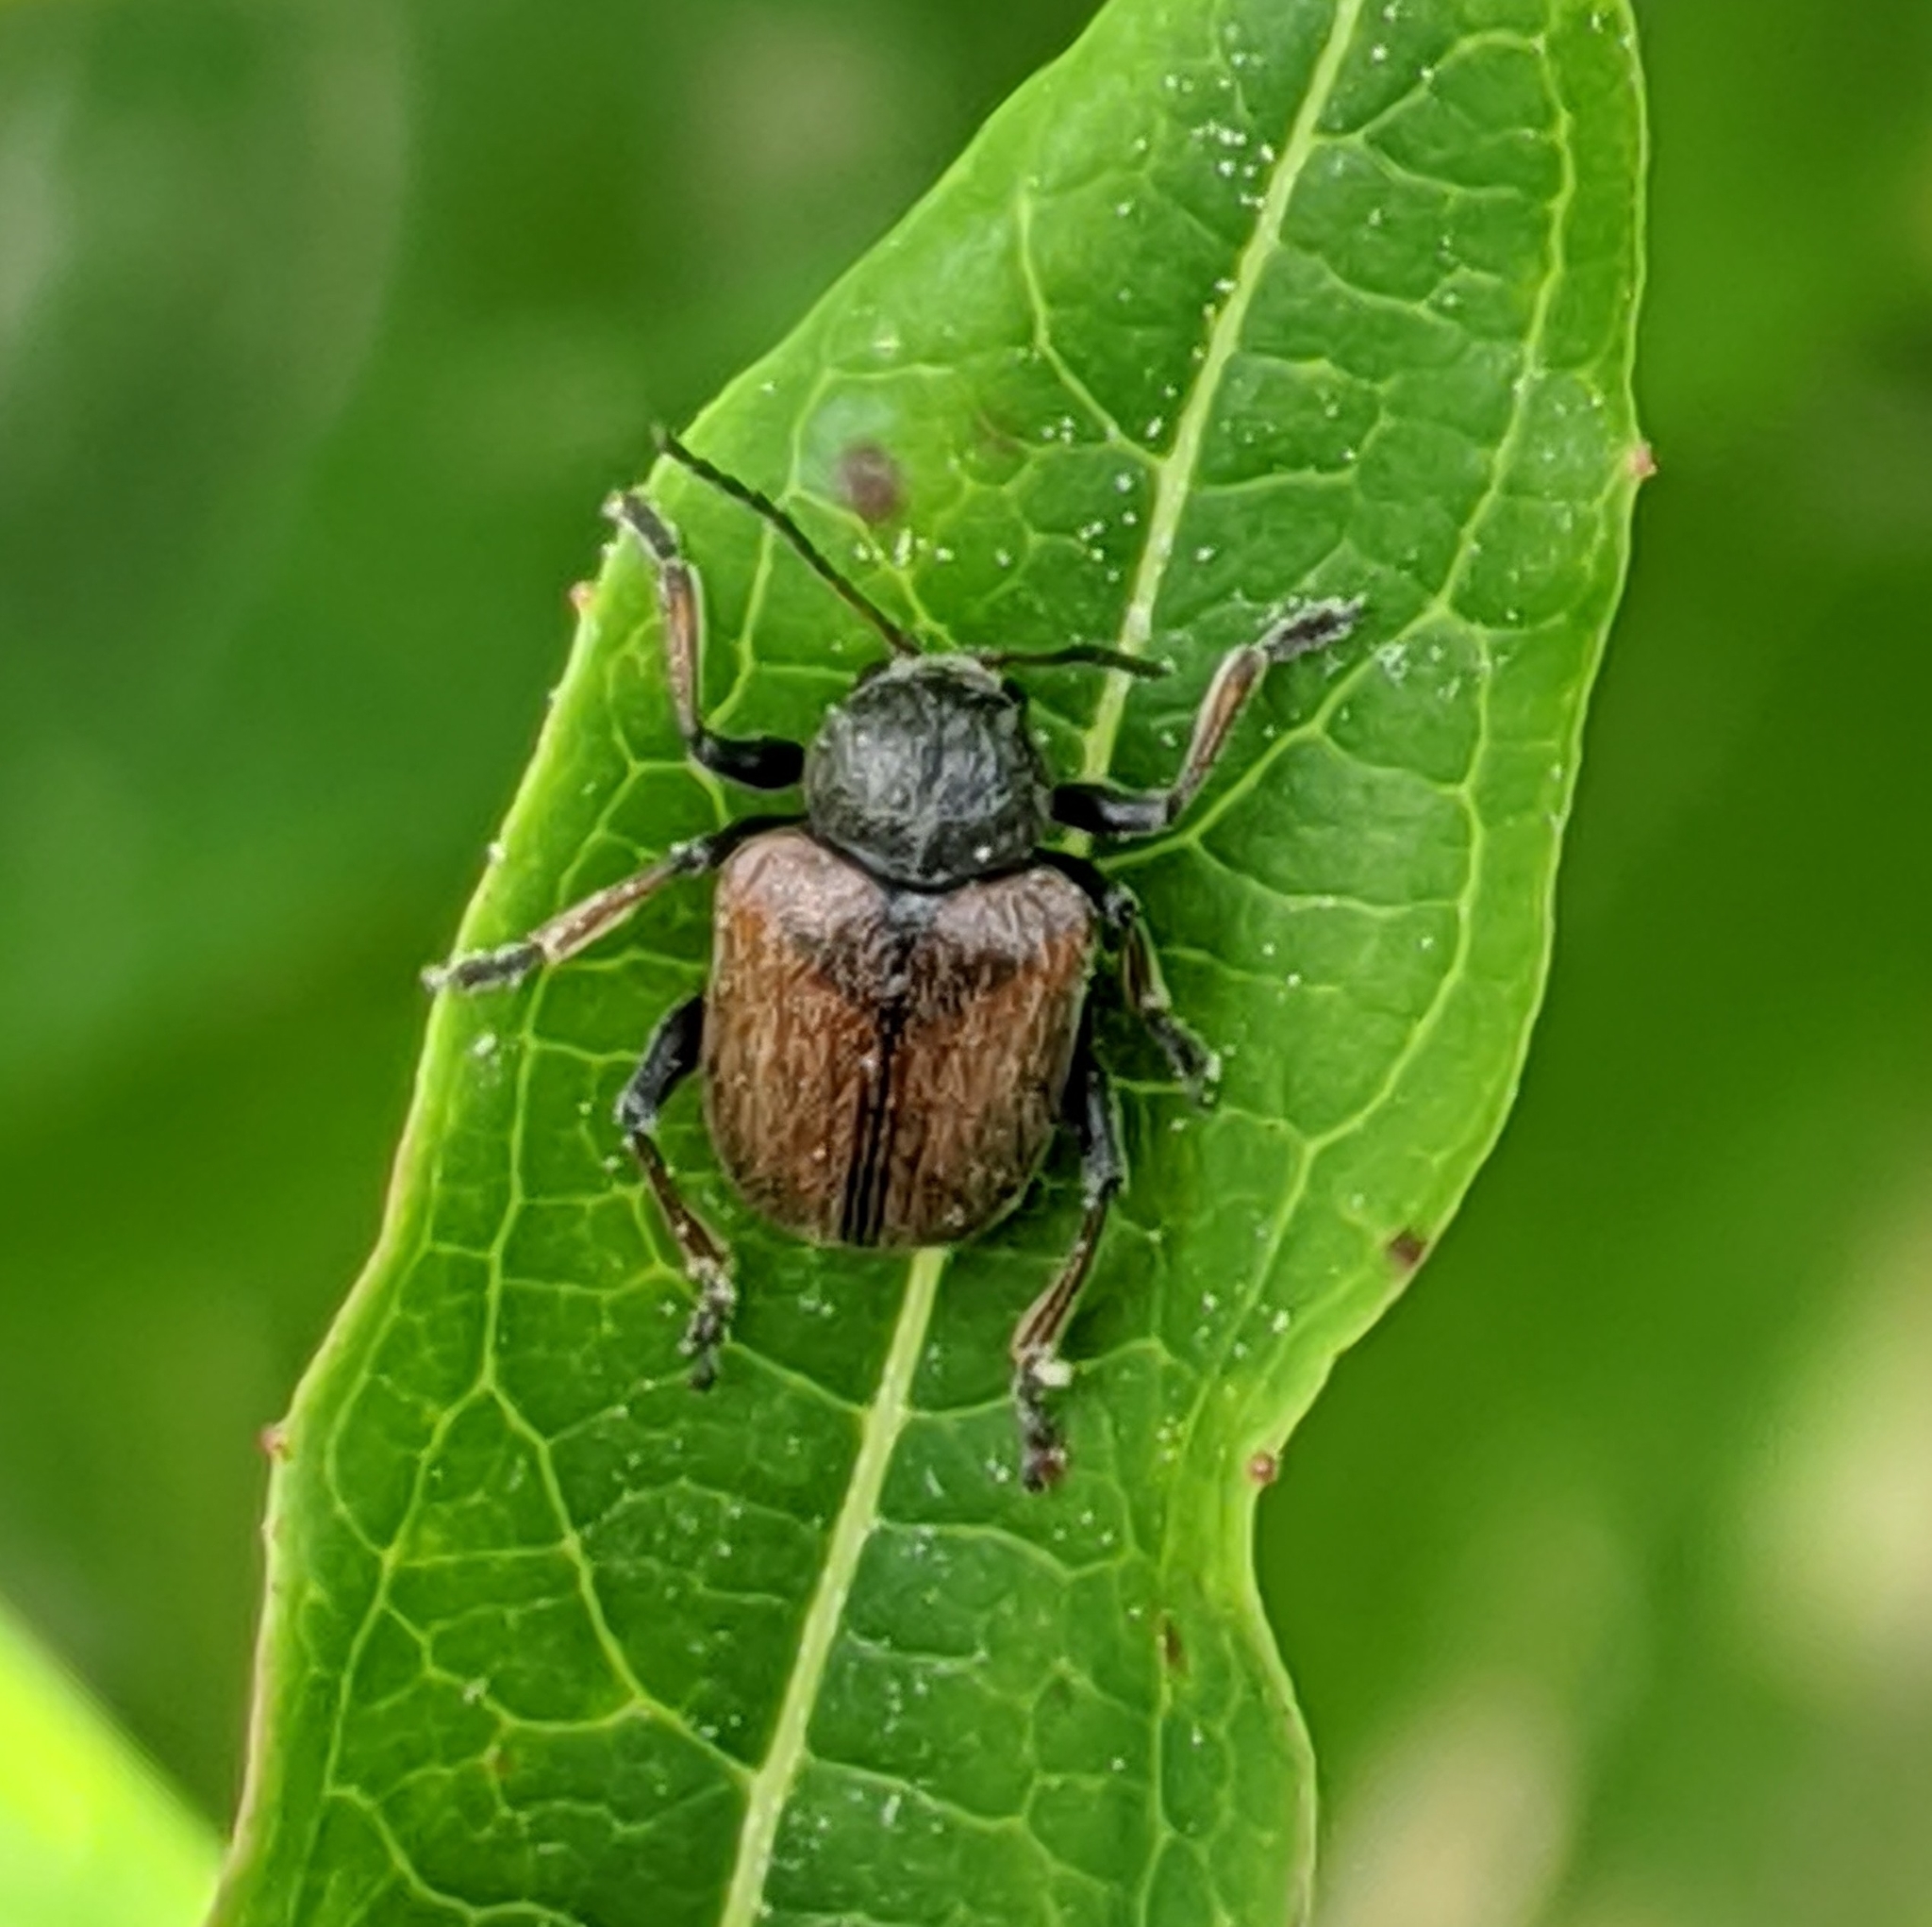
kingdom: Animalia
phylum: Arthropoda
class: Insecta
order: Coleoptera
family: Chrysomelidae
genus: Bromius
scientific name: Bromius obscurus
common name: Western grape rootworm
